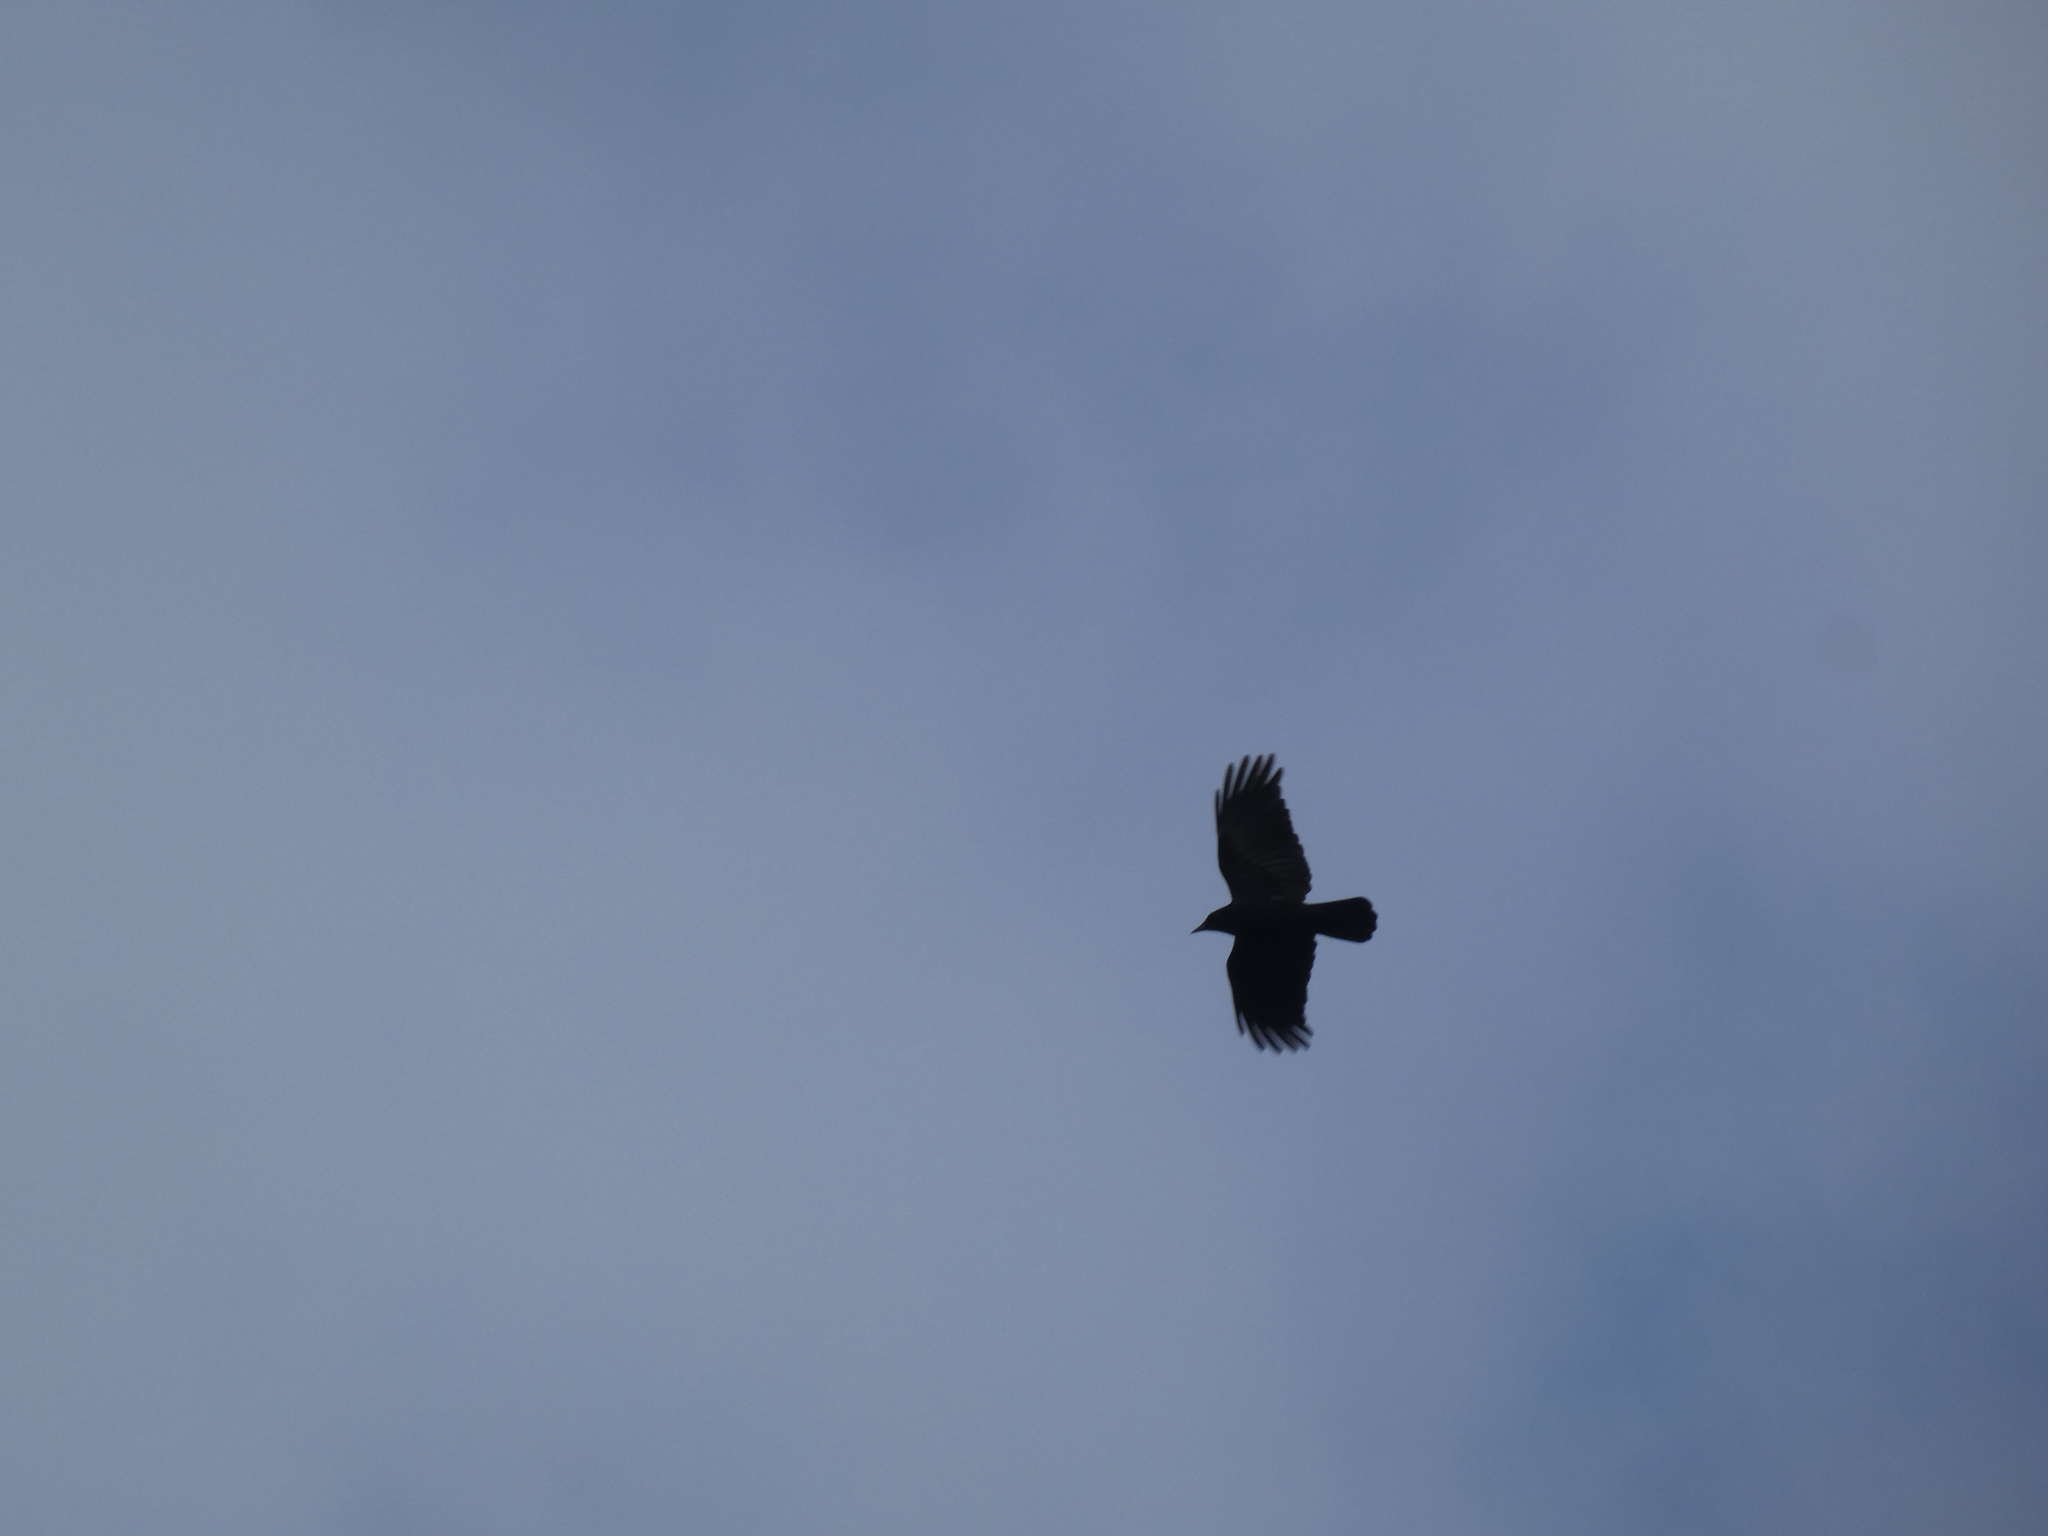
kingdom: Animalia
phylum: Chordata
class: Aves
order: Passeriformes
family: Corvidae
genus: Corvus
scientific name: Corvus brachyrhynchos
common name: American crow
